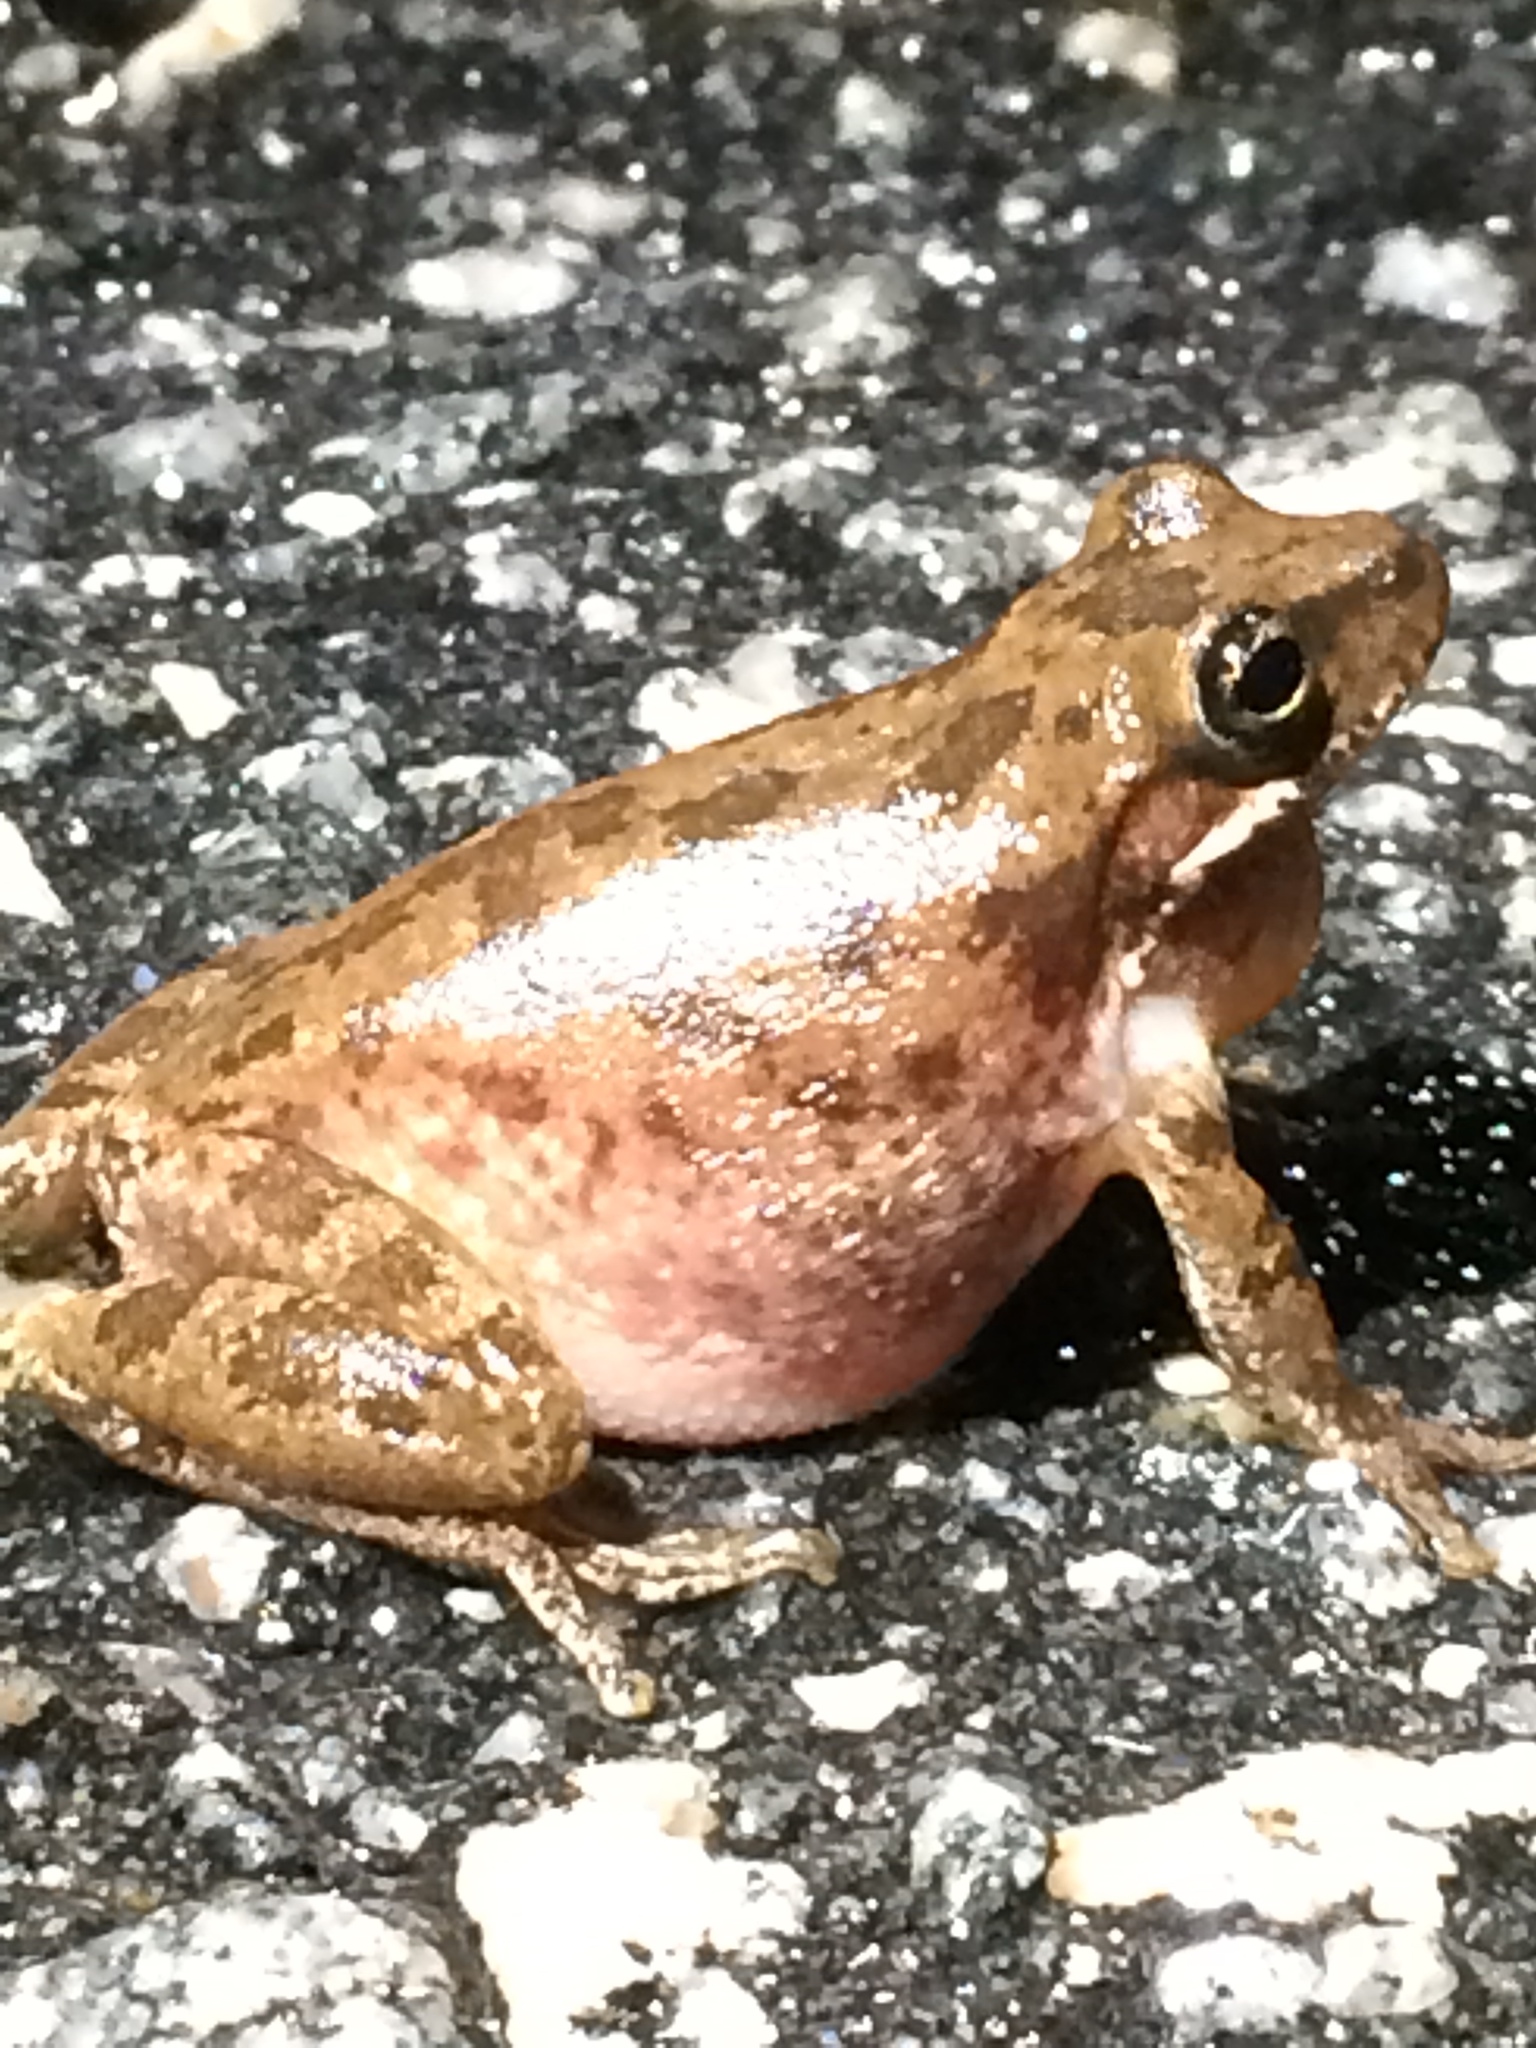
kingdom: Animalia
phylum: Chordata
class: Amphibia
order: Anura
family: Hylidae
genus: Dryophytes
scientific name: Dryophytes squirellus
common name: Squirrel treefrog
